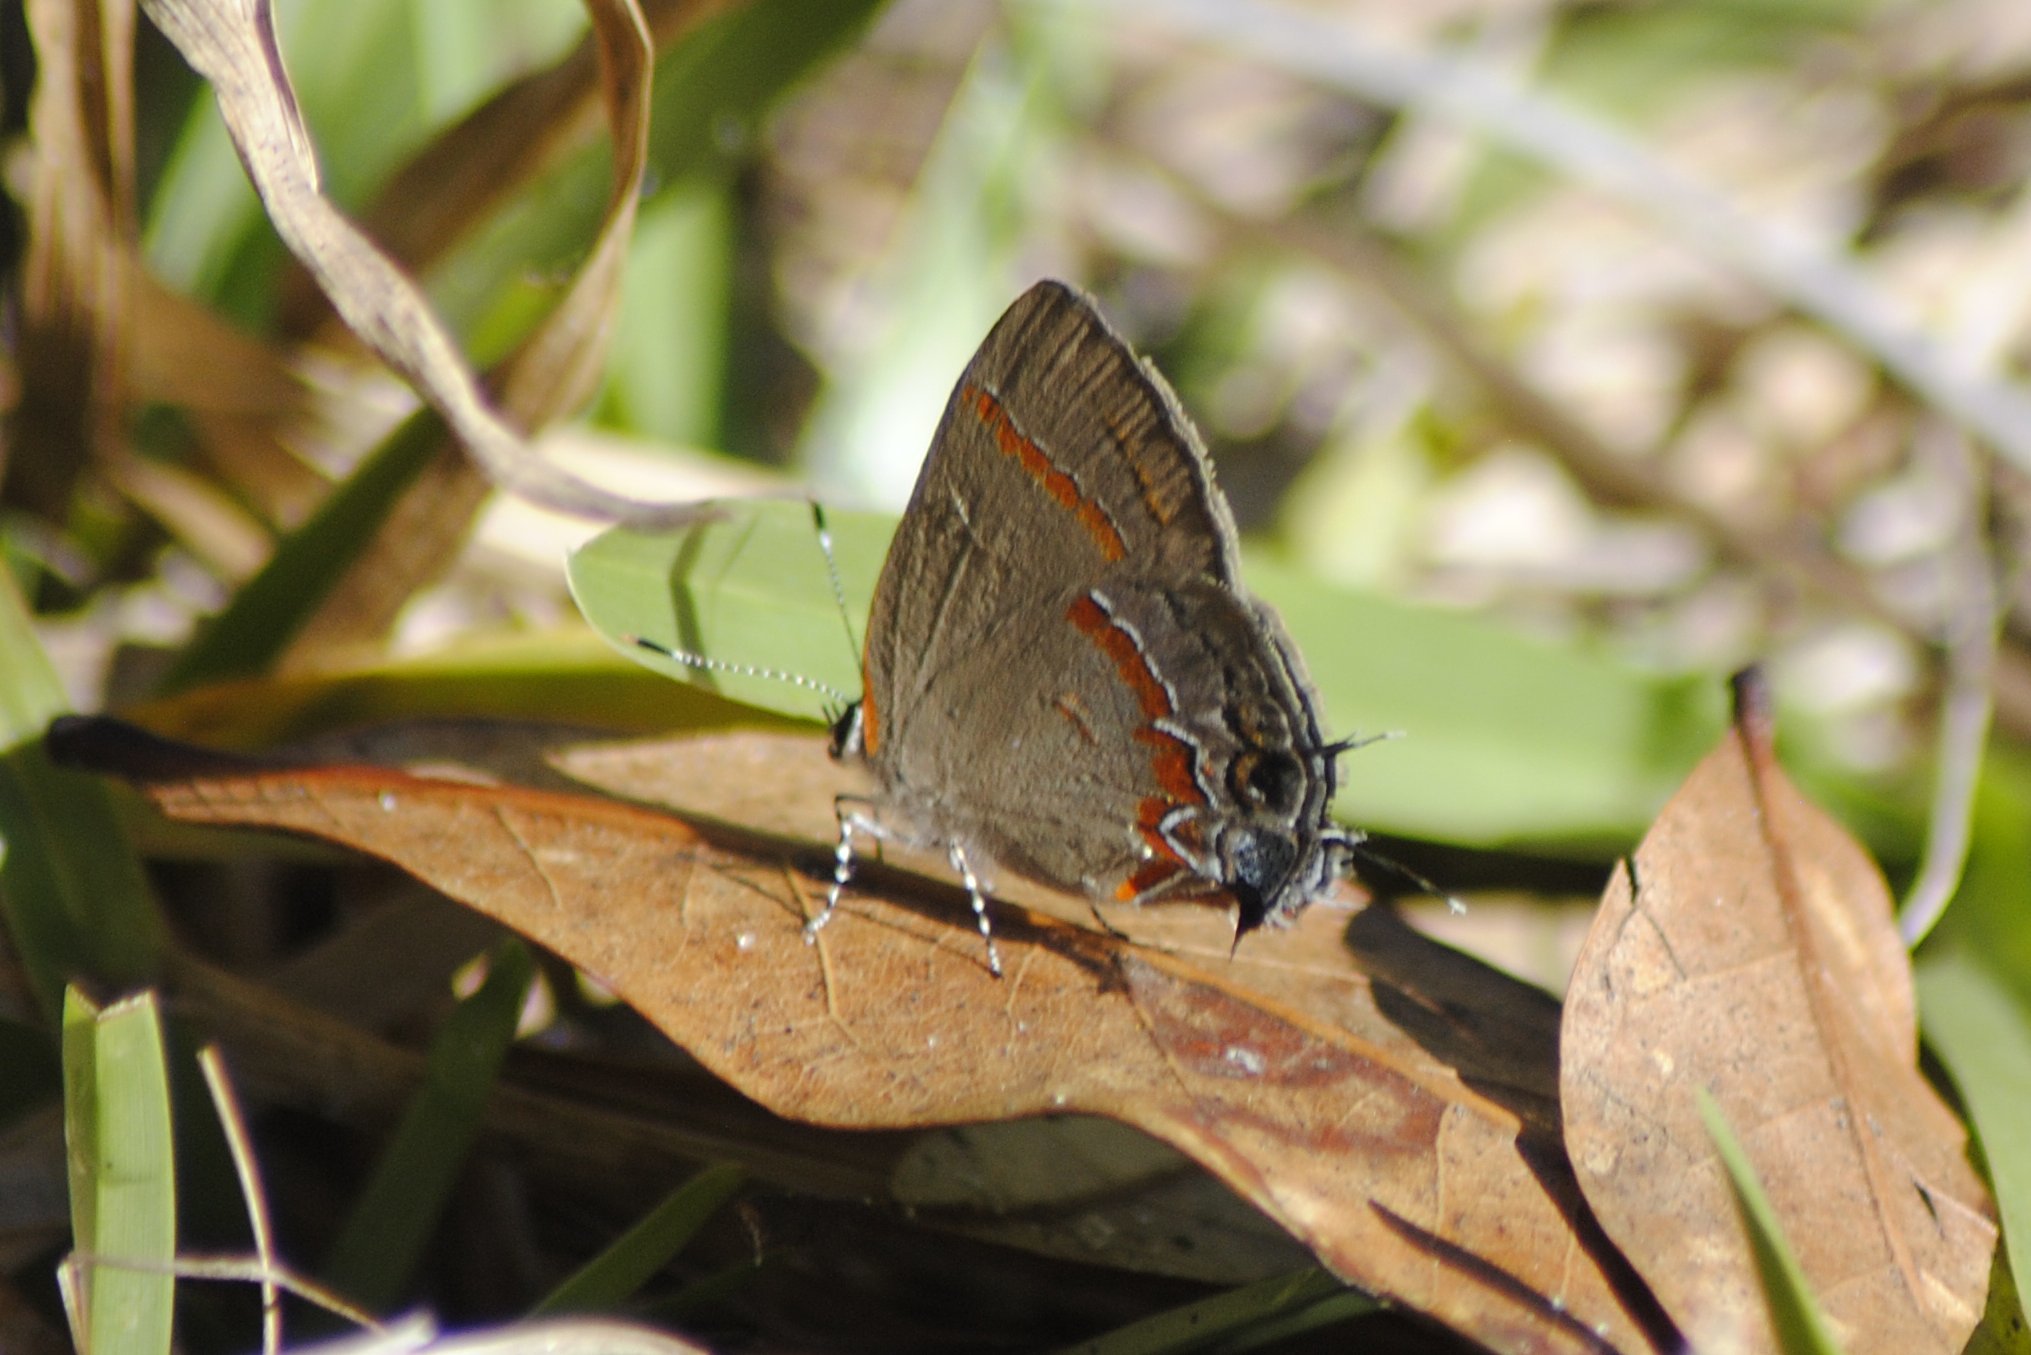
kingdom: Animalia
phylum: Arthropoda
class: Insecta
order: Lepidoptera
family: Lycaenidae
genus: Calycopis
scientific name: Calycopis cecrops
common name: Red-banded hairstreak
